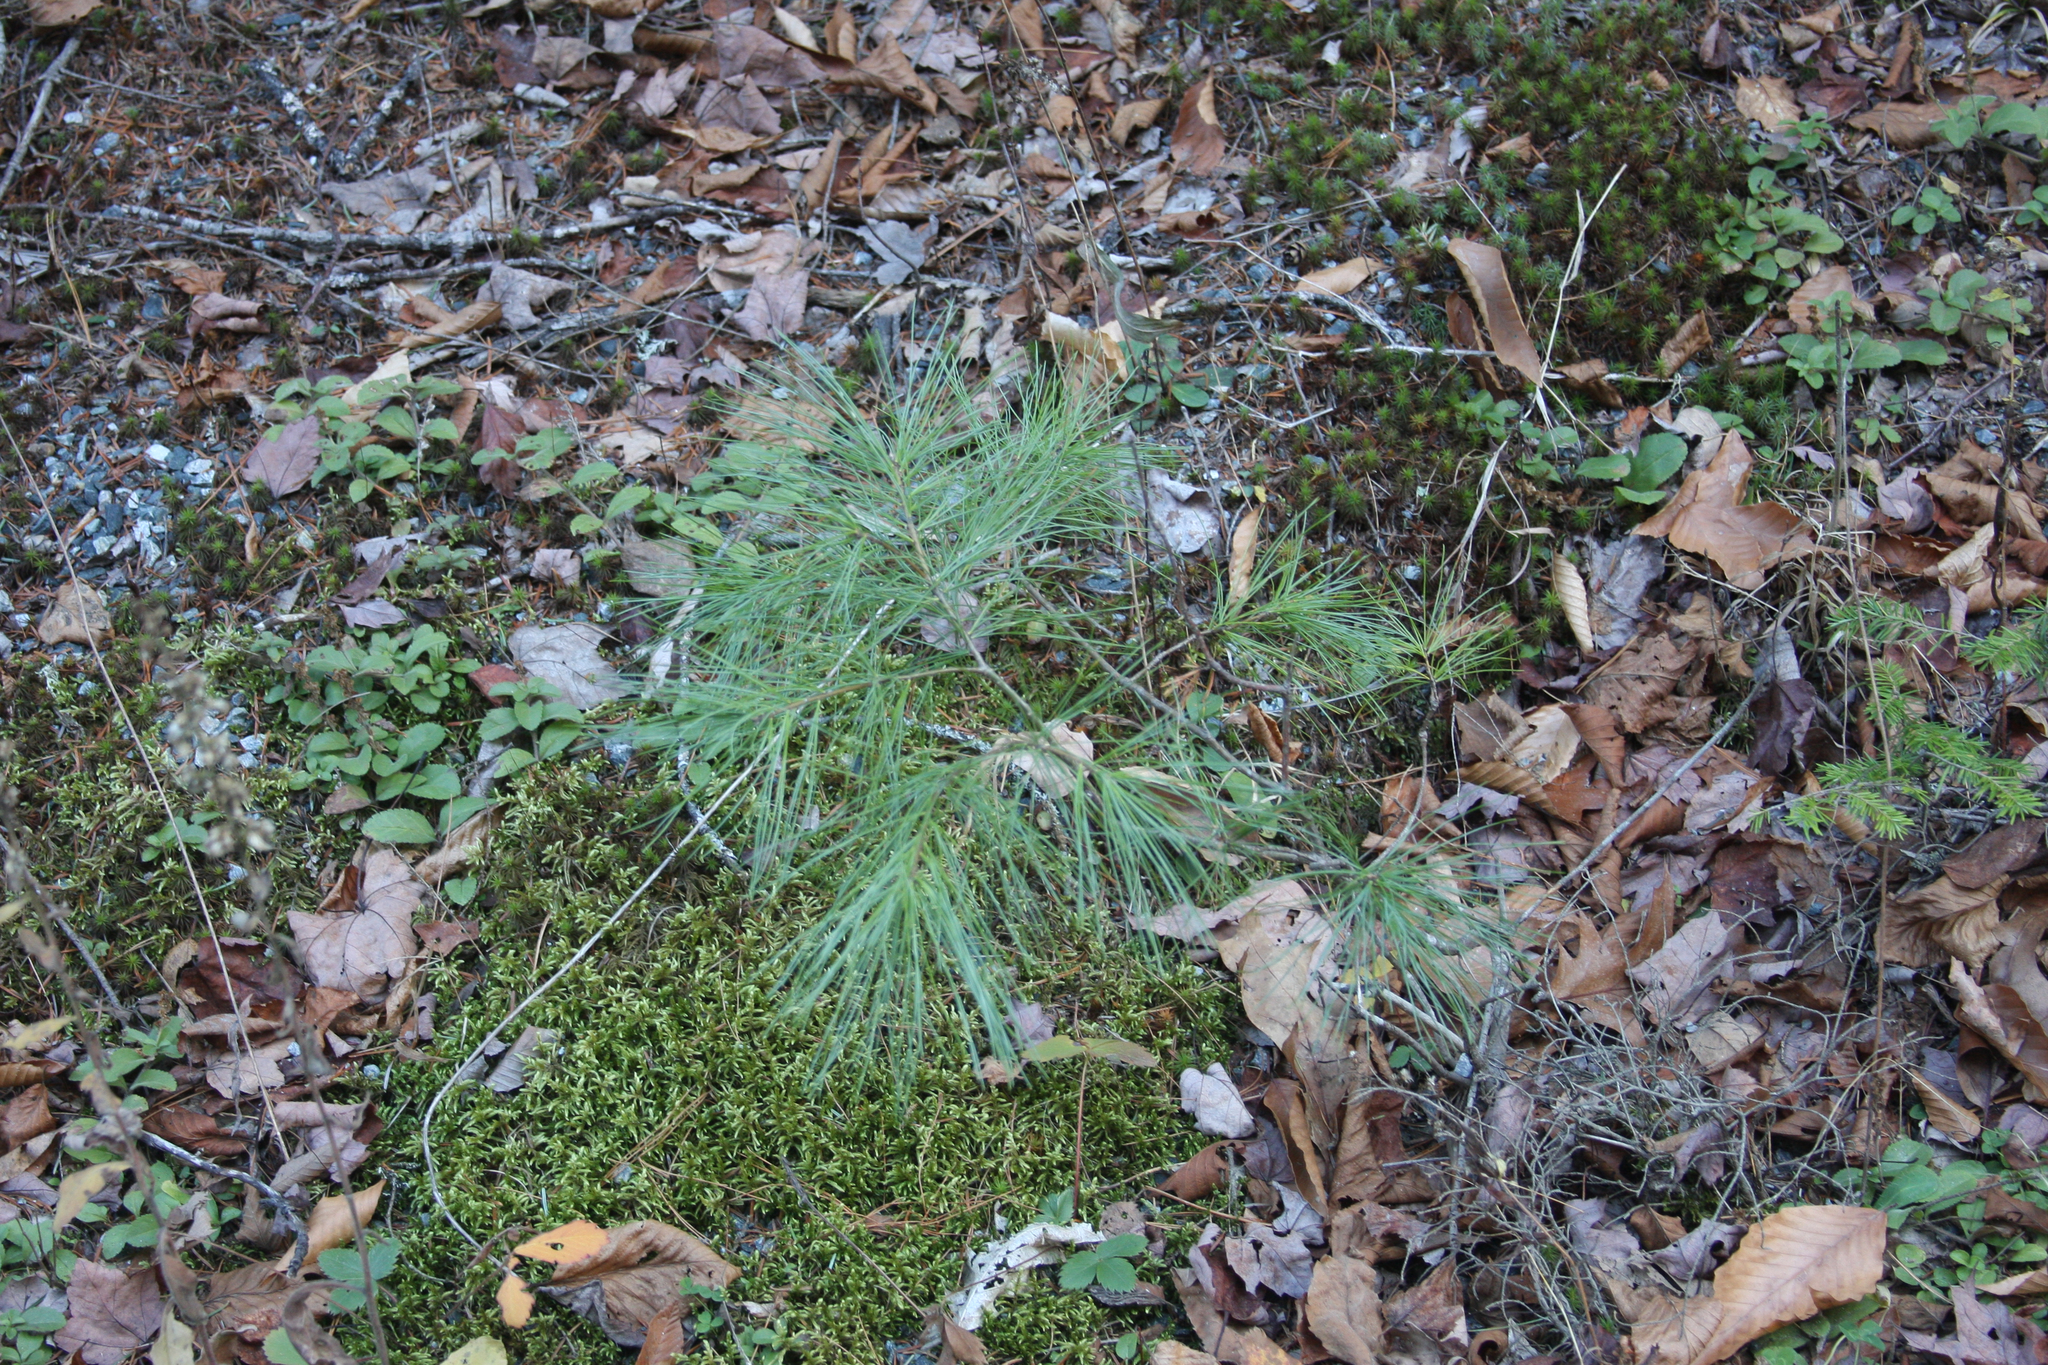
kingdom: Plantae
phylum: Tracheophyta
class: Pinopsida
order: Pinales
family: Pinaceae
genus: Pinus
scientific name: Pinus strobus
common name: Weymouth pine
